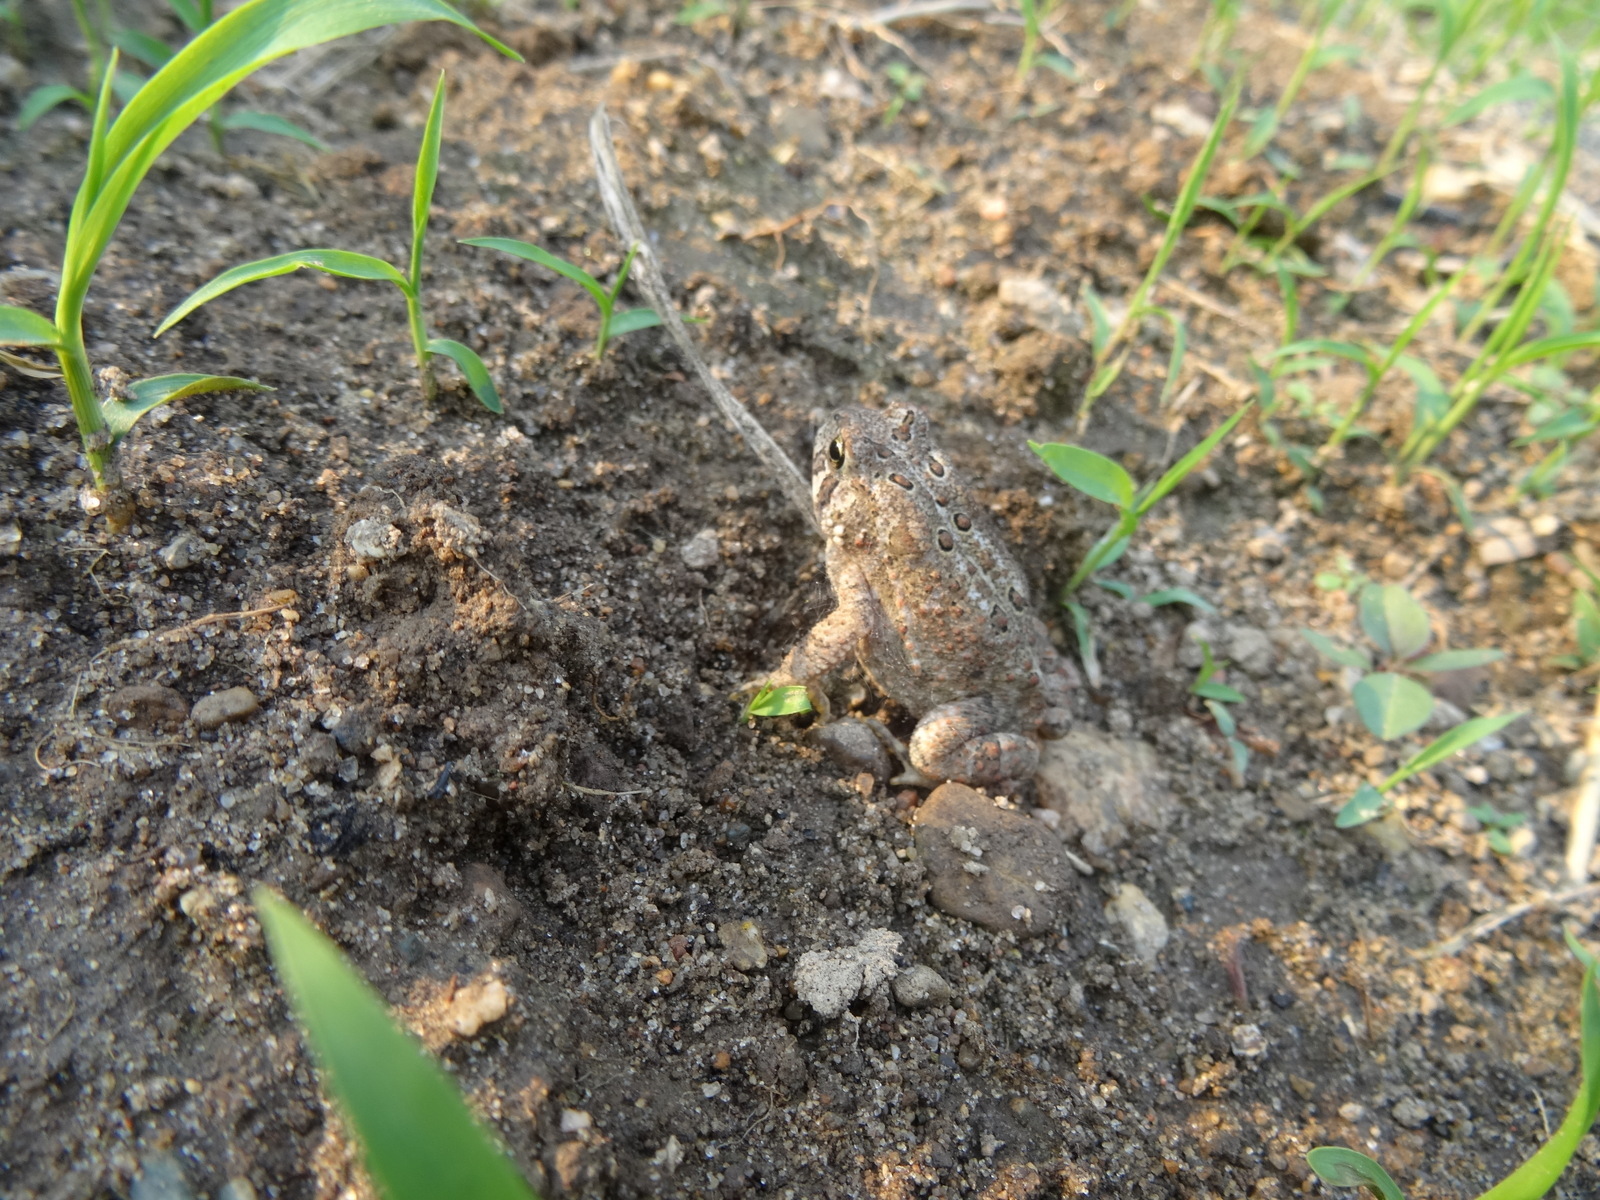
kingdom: Animalia
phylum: Chordata
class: Amphibia
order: Anura
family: Bufonidae
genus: Anaxyrus
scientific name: Anaxyrus americanus
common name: American toad
